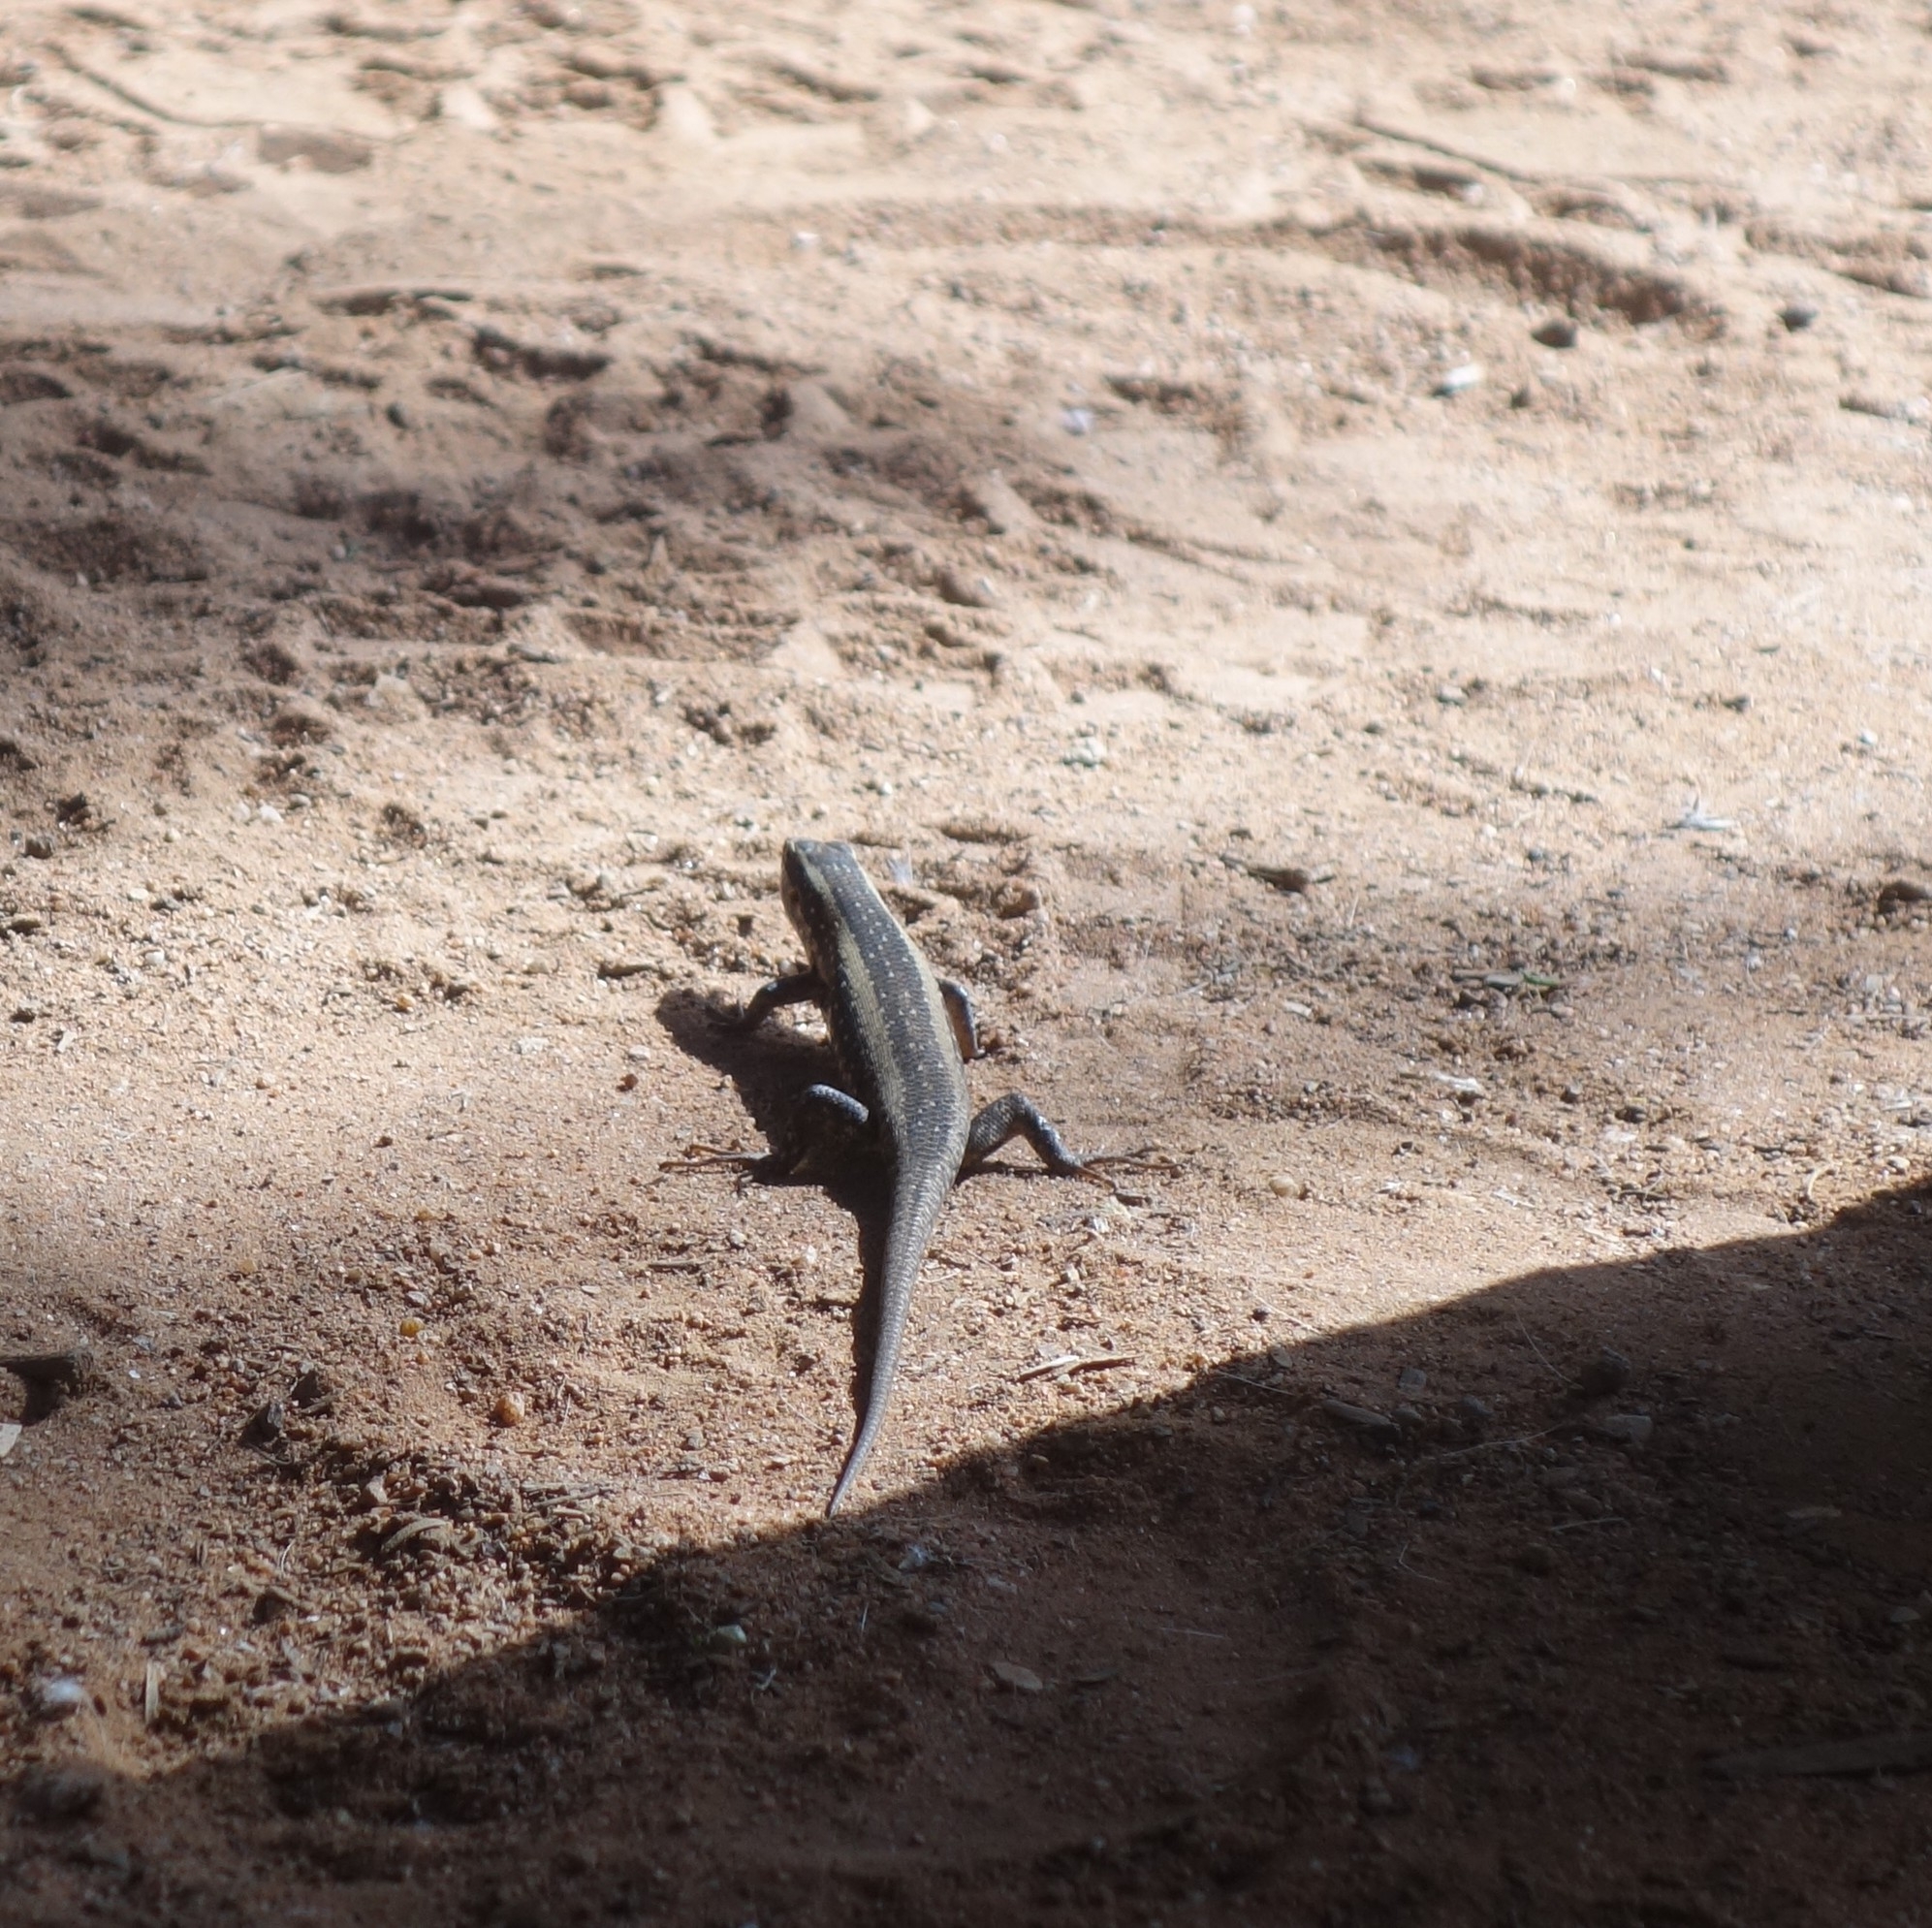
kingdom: Animalia
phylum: Chordata
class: Squamata
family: Scincidae
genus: Trachylepis
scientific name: Trachylepis spilogaster
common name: Kalahari tree skink
